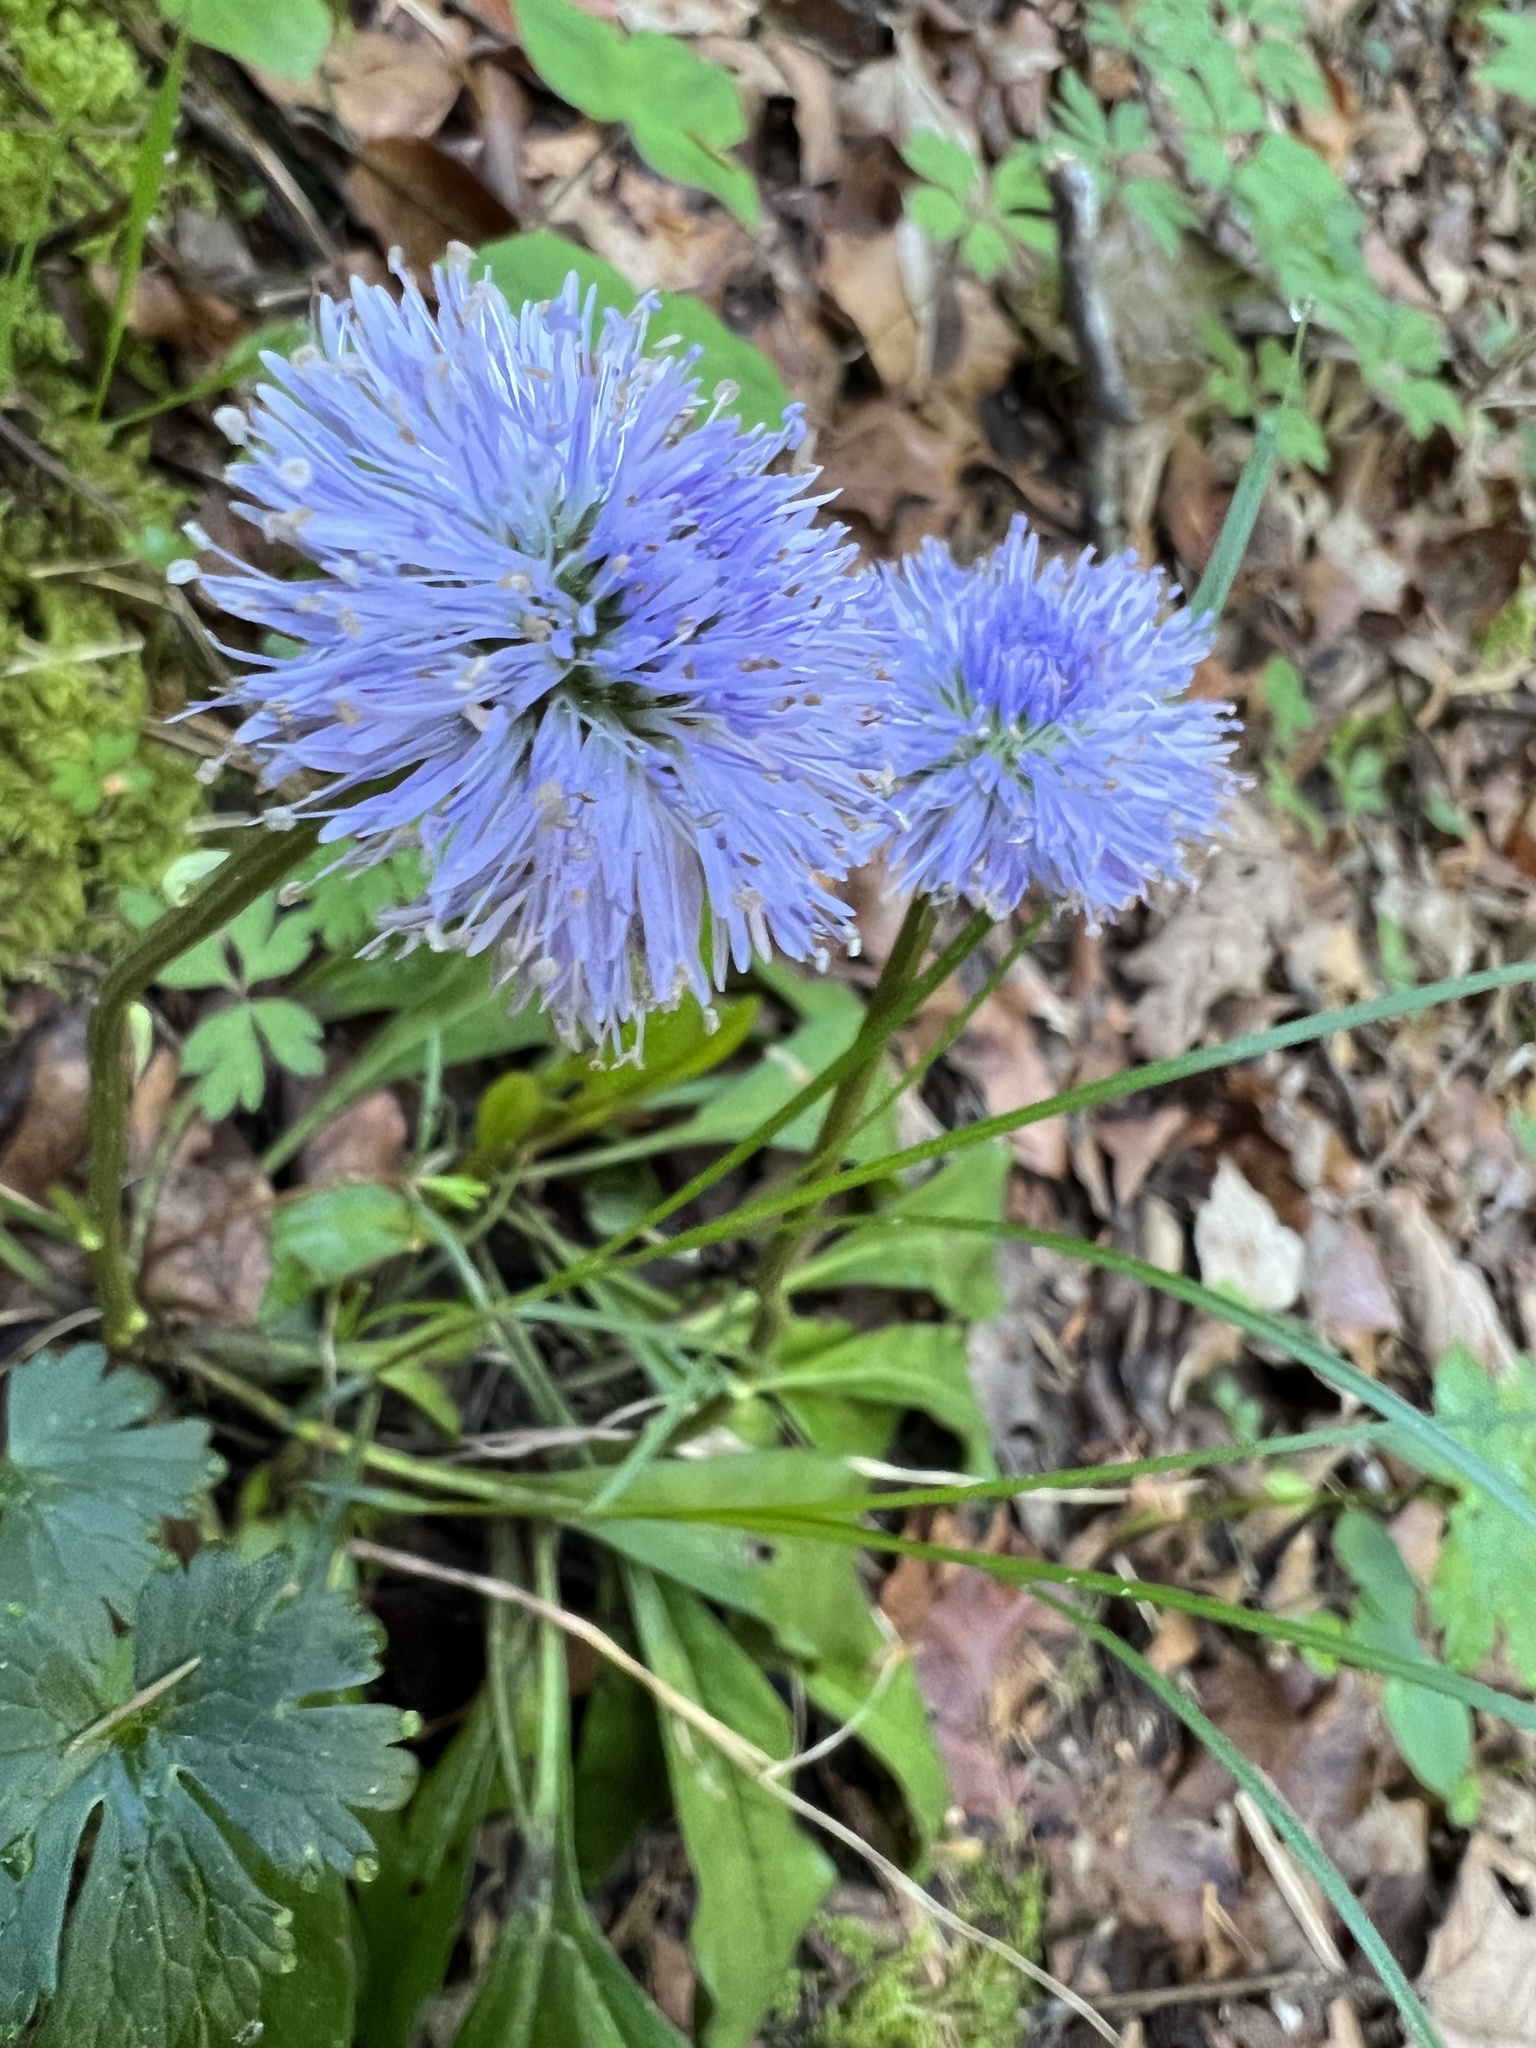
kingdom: Plantae
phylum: Tracheophyta
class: Magnoliopsida
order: Lamiales
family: Plantaginaceae
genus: Globularia
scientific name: Globularia nudicaulis
